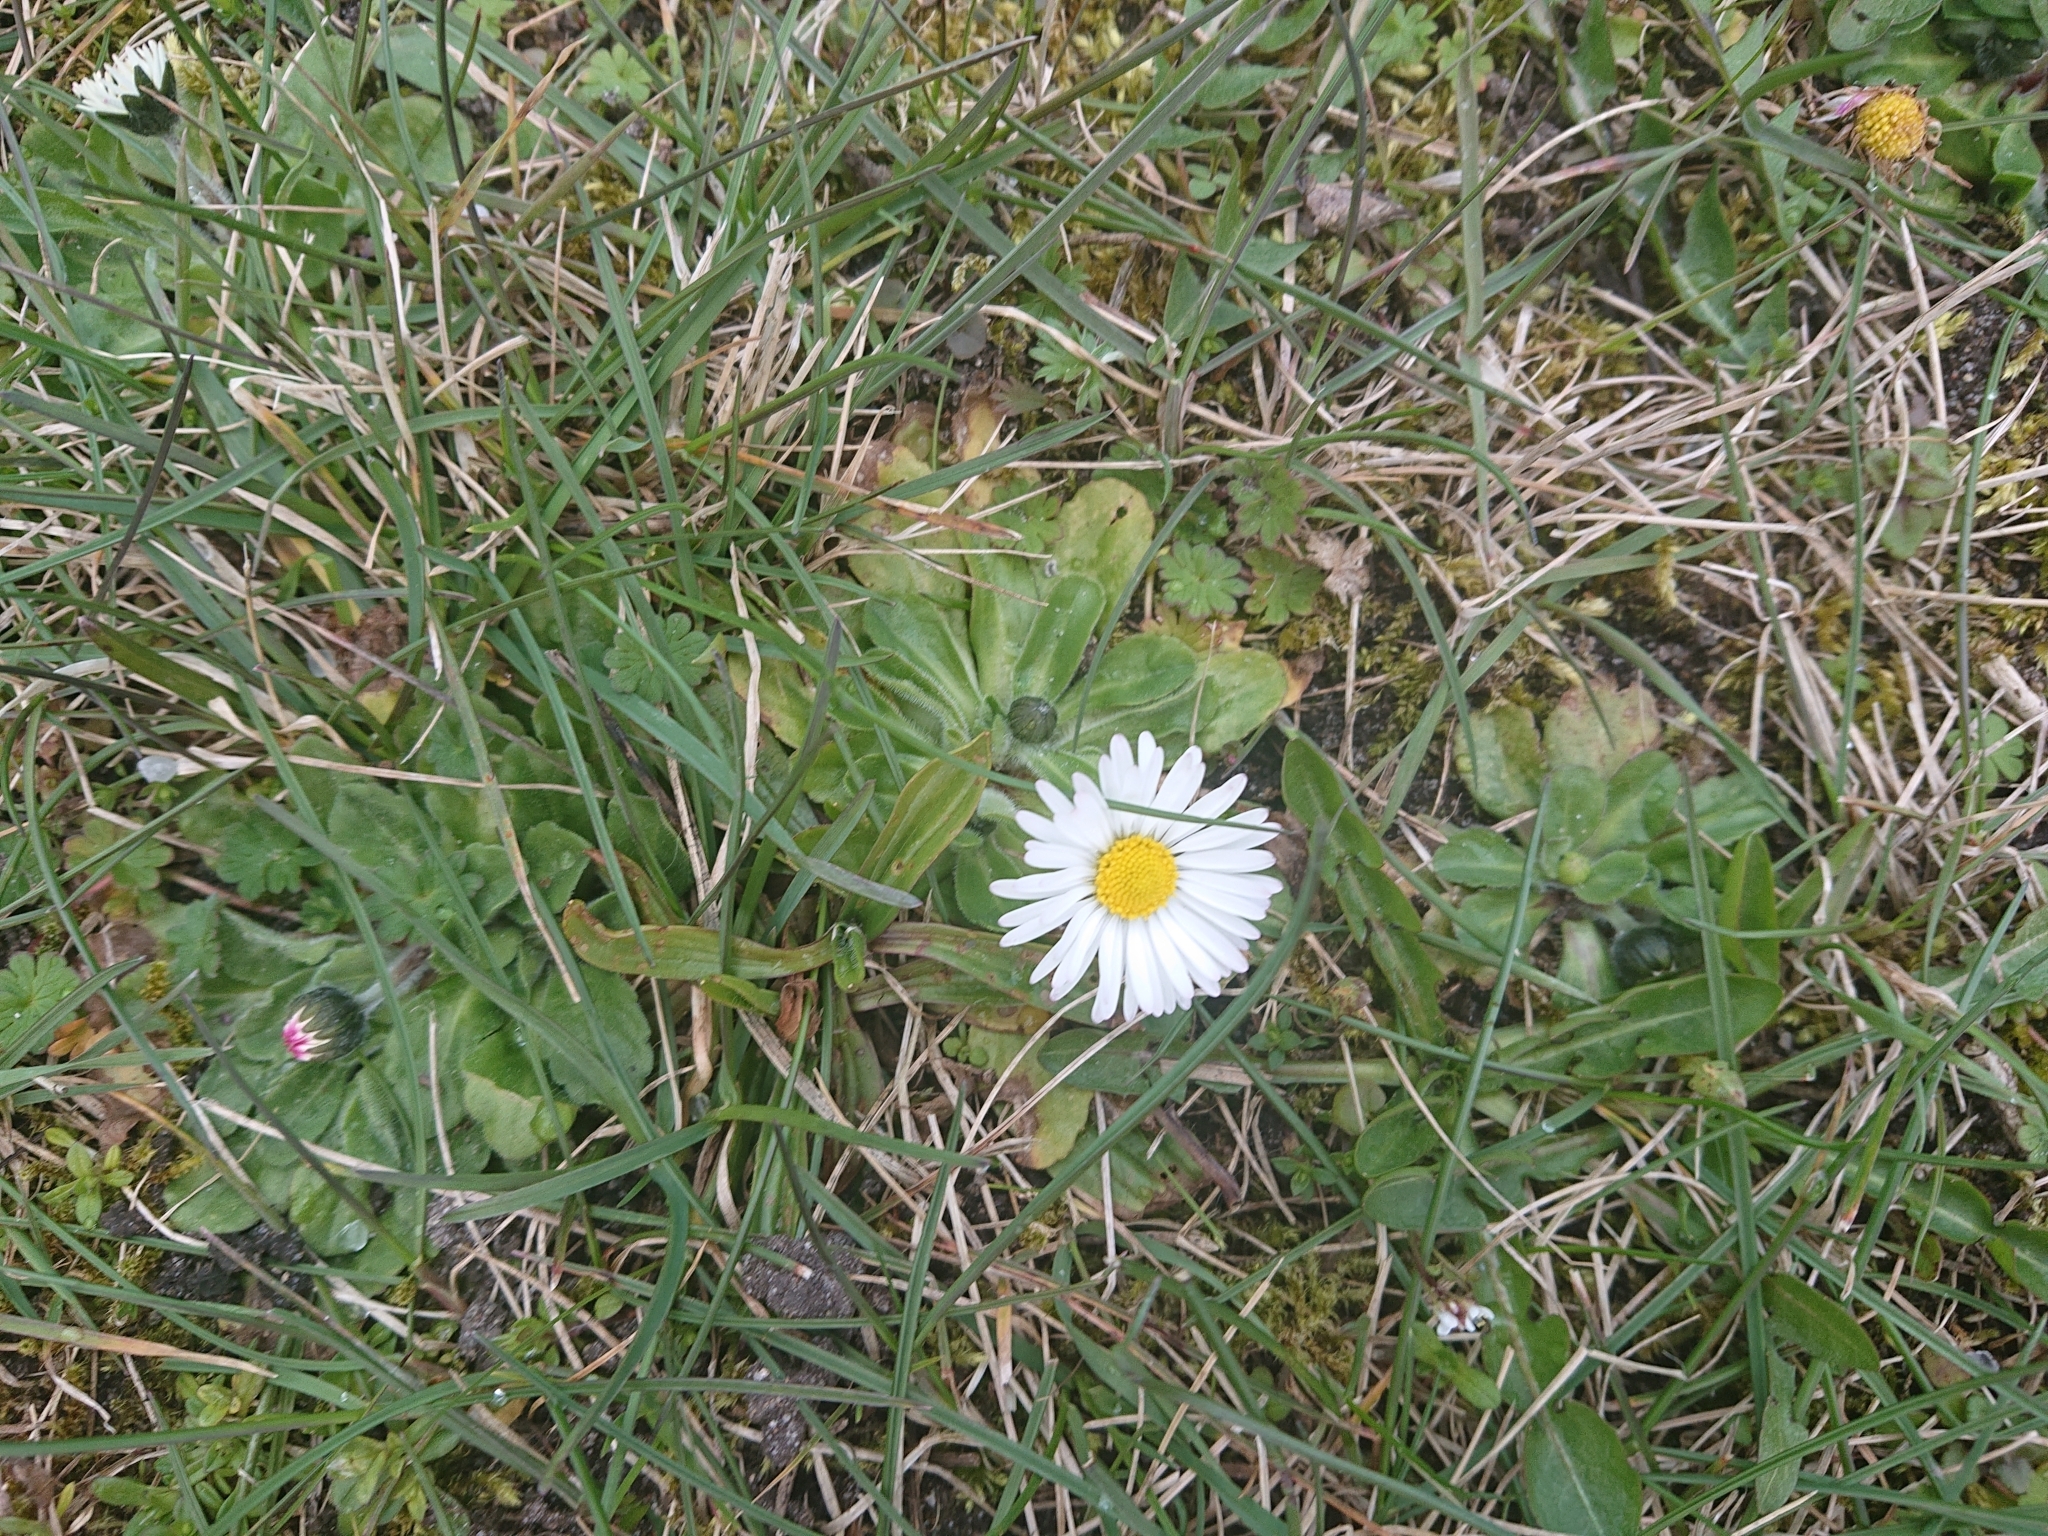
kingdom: Plantae
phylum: Tracheophyta
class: Magnoliopsida
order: Asterales
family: Asteraceae
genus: Bellis
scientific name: Bellis perennis
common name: Lawndaisy
